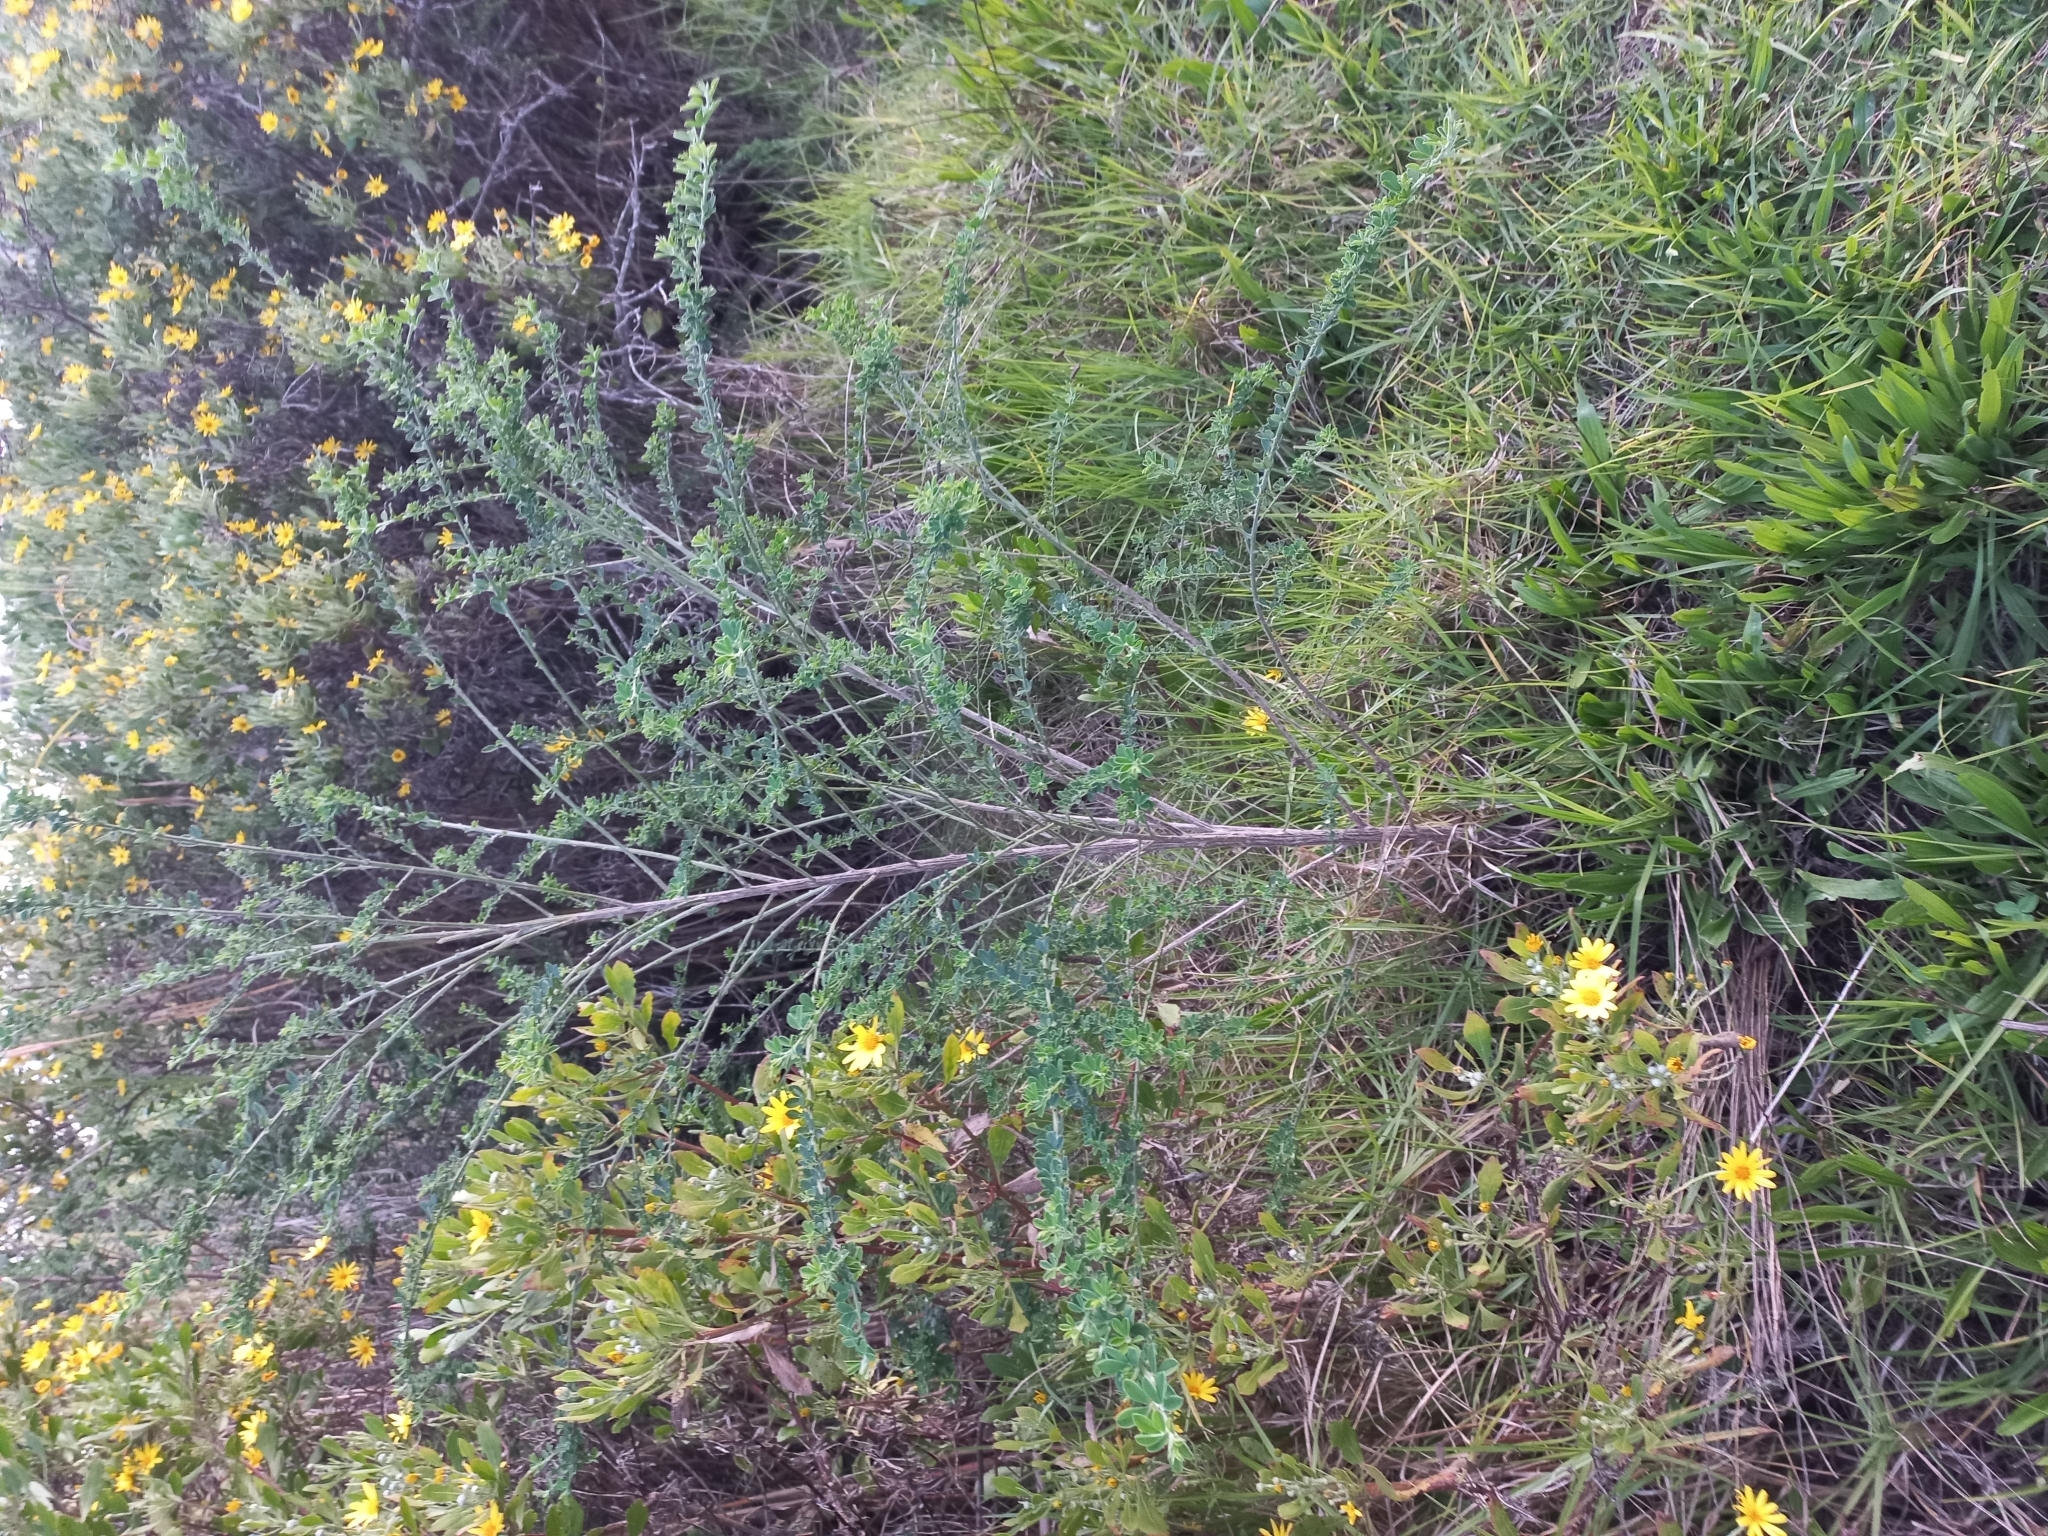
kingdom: Plantae
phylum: Tracheophyta
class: Magnoliopsida
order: Fabales
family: Fabaceae
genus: Genista
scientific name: Genista monspessulana
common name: Montpellier broom
